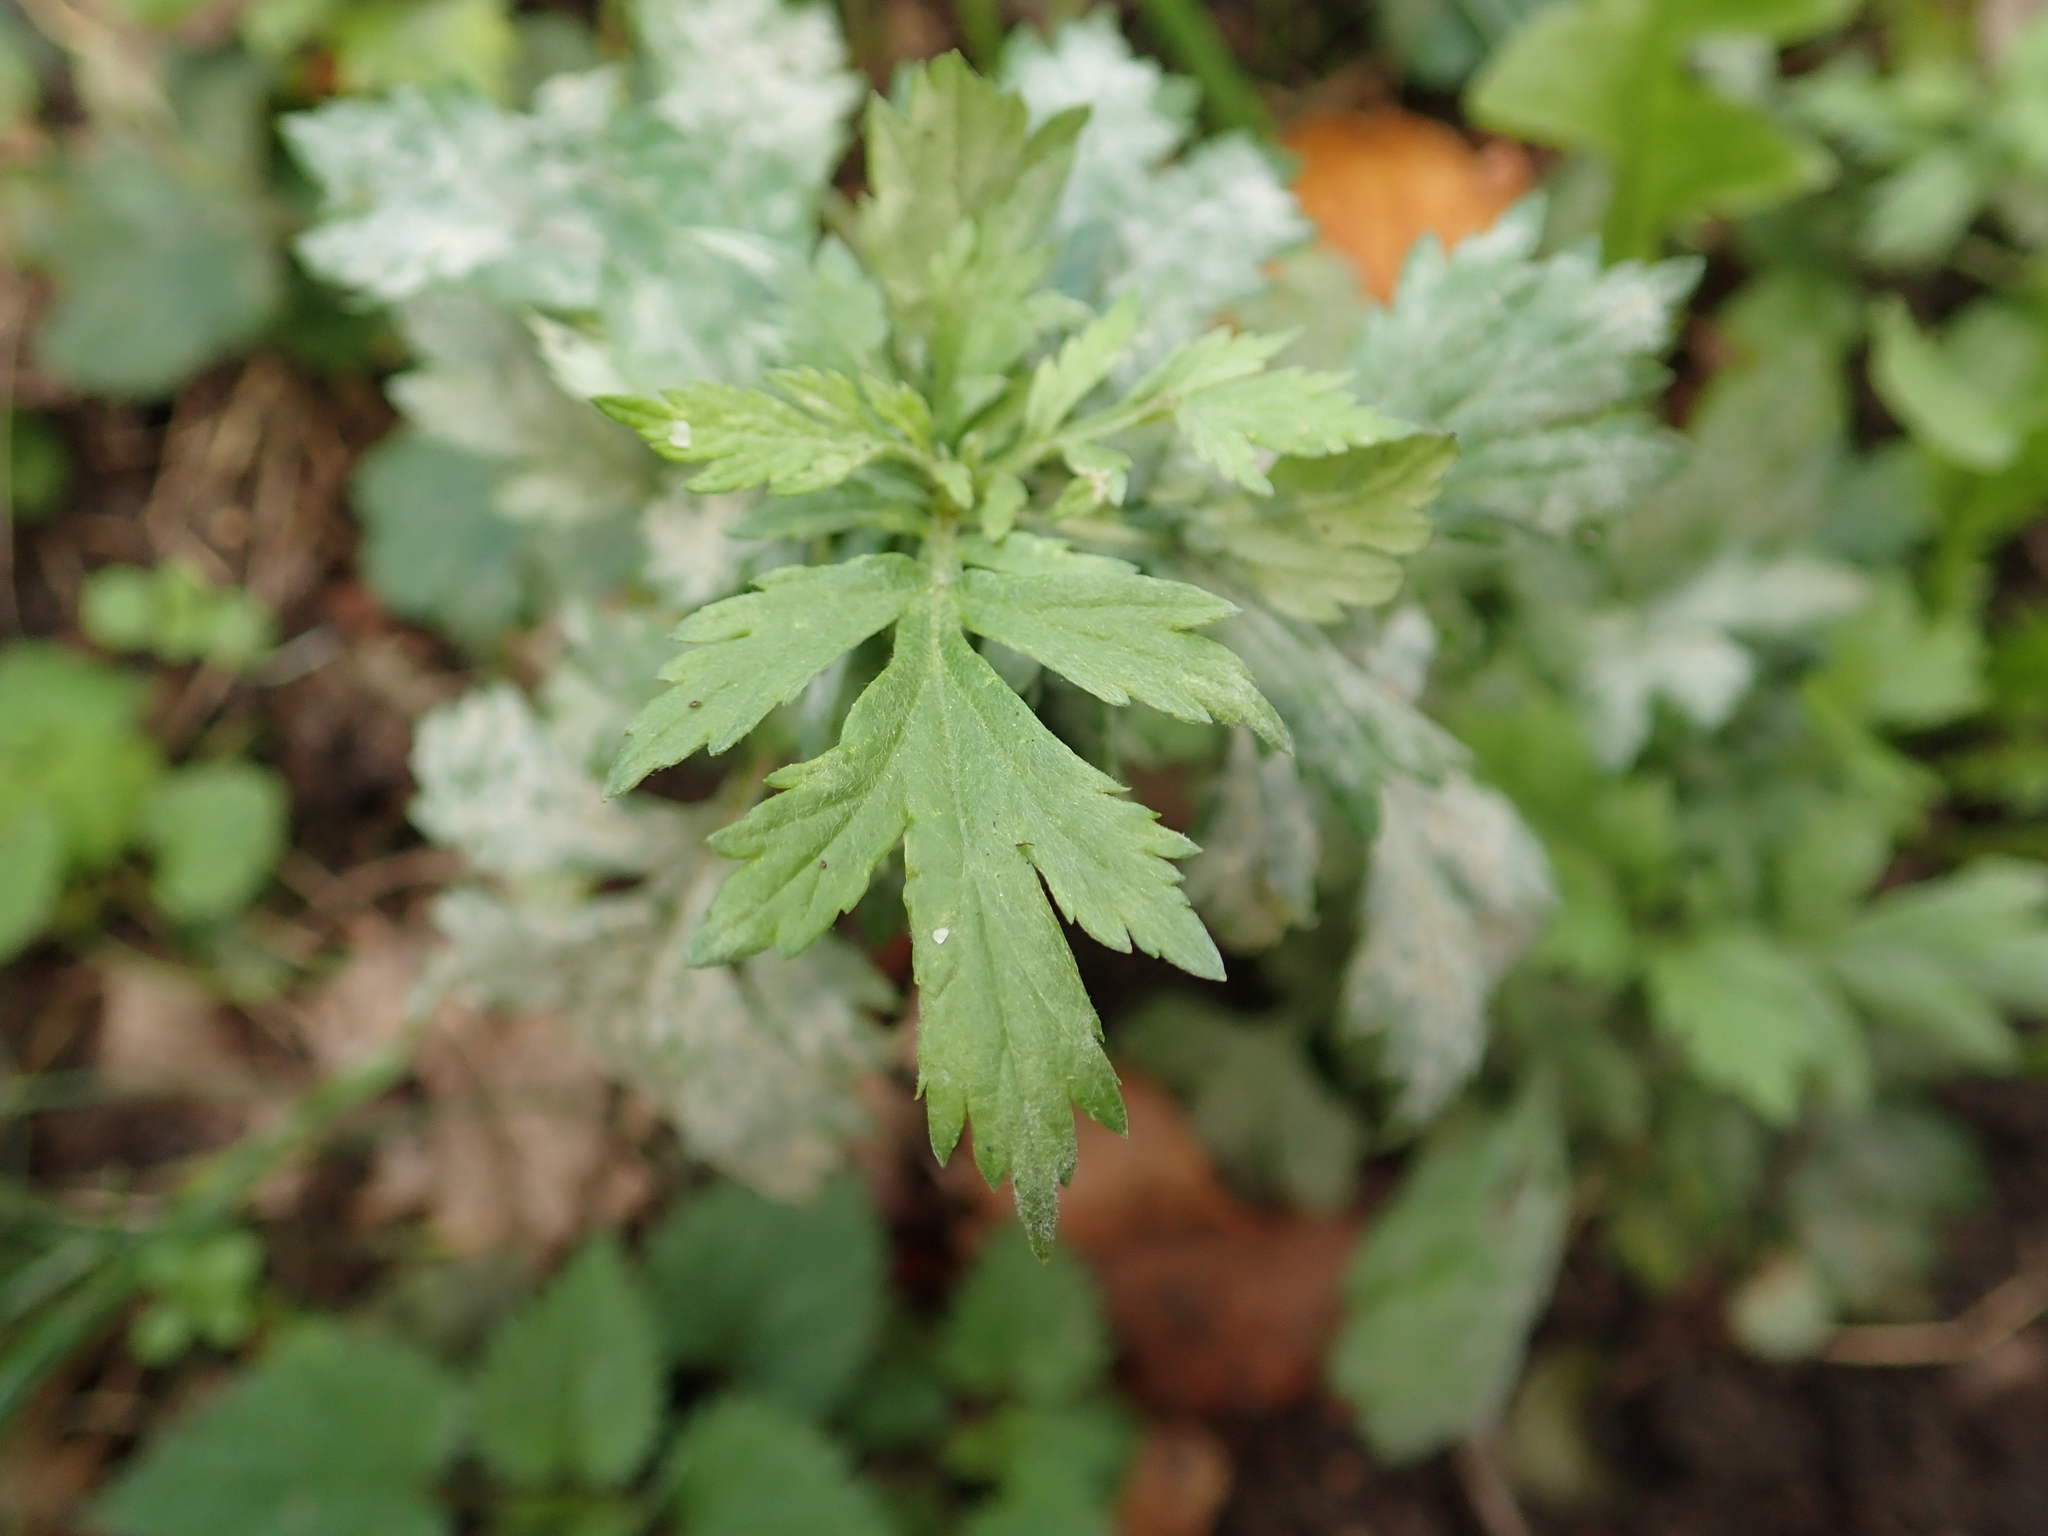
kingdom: Plantae
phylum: Tracheophyta
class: Magnoliopsida
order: Asterales
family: Asteraceae
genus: Artemisia
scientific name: Artemisia vulgaris
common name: Mugwort
